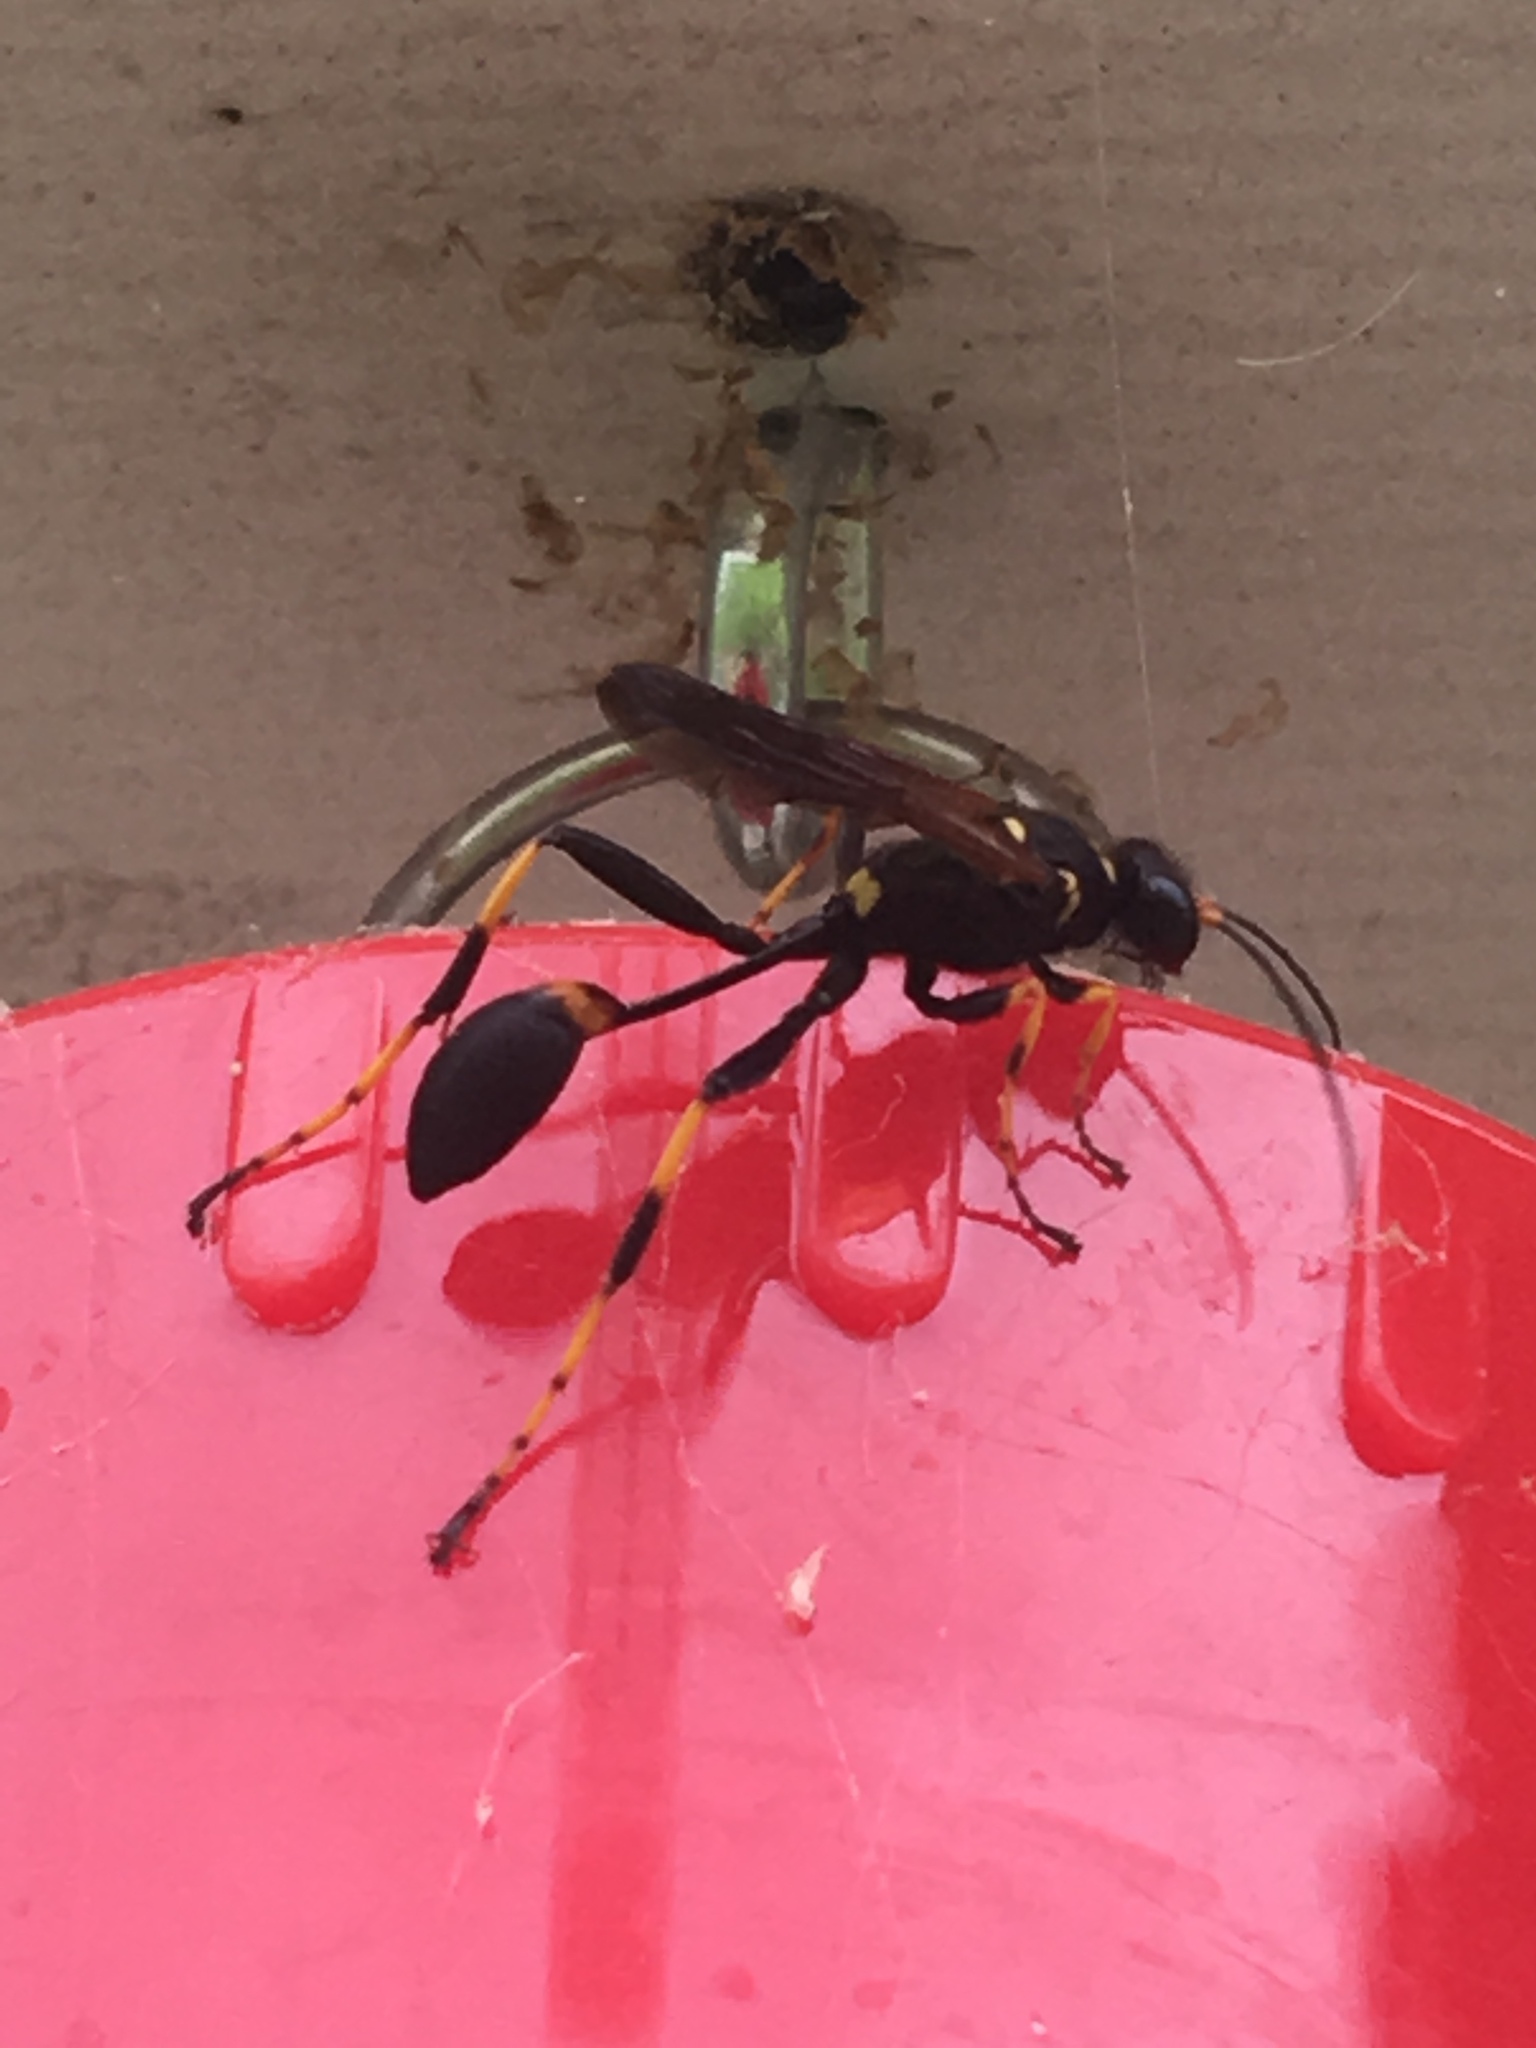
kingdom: Animalia
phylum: Arthropoda
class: Insecta
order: Hymenoptera
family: Sphecidae
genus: Sceliphron
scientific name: Sceliphron caementarium
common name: Mud dauber
